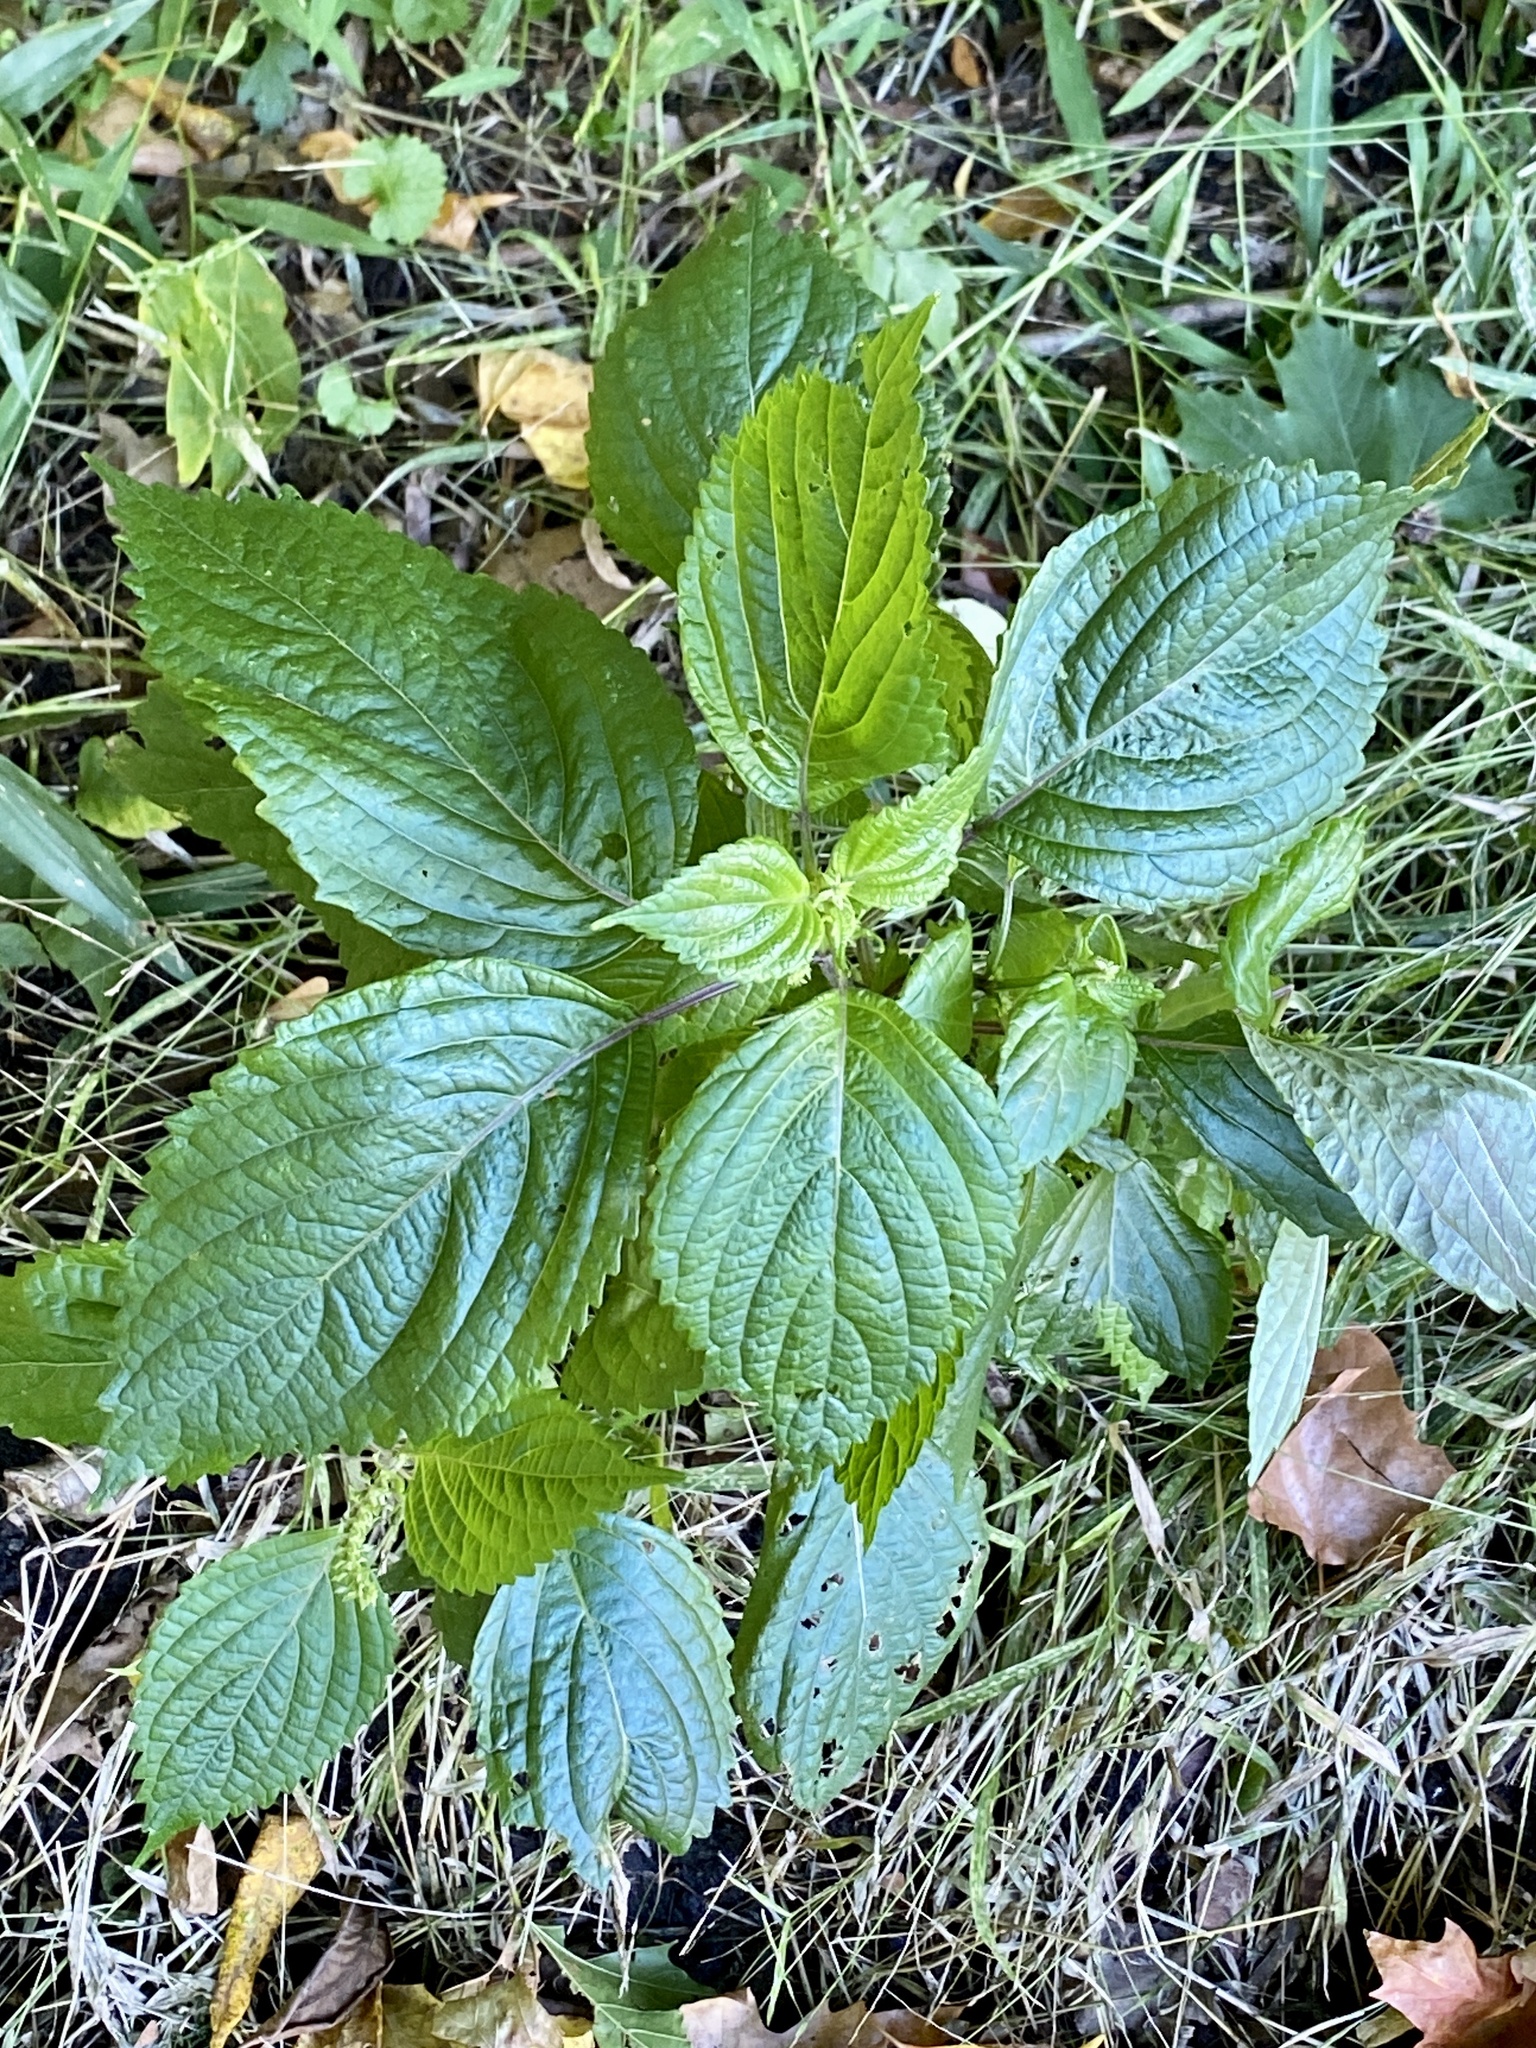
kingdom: Plantae
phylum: Tracheophyta
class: Magnoliopsida
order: Lamiales
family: Lamiaceae
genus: Perilla
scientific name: Perilla frutescens
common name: Perilla
